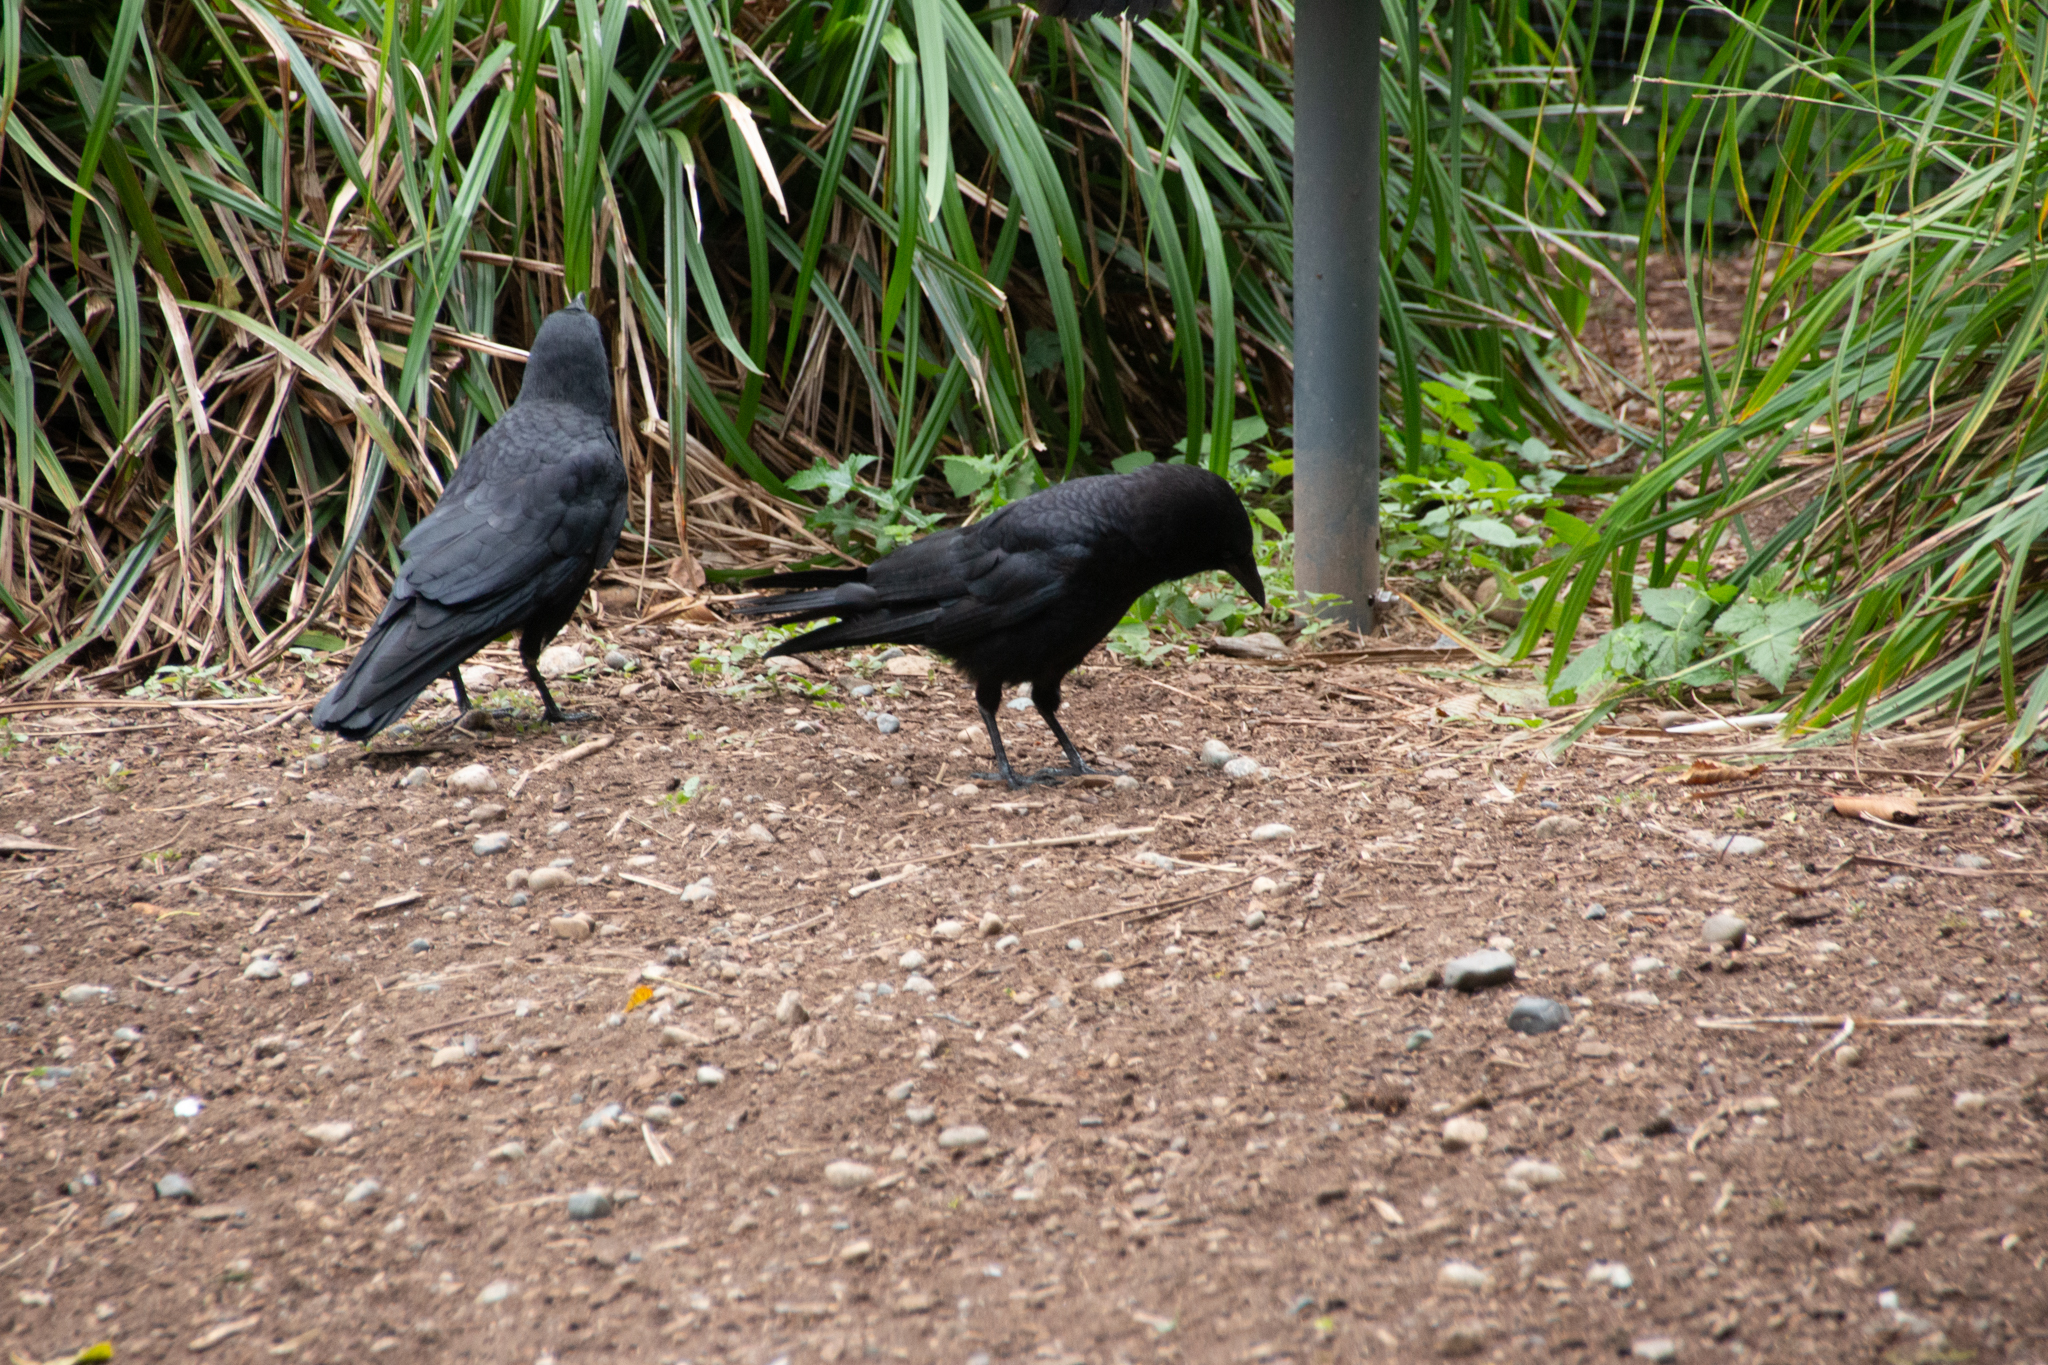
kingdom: Animalia
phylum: Chordata
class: Aves
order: Passeriformes
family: Corvidae
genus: Corvus
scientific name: Corvus brachyrhynchos
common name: American crow
